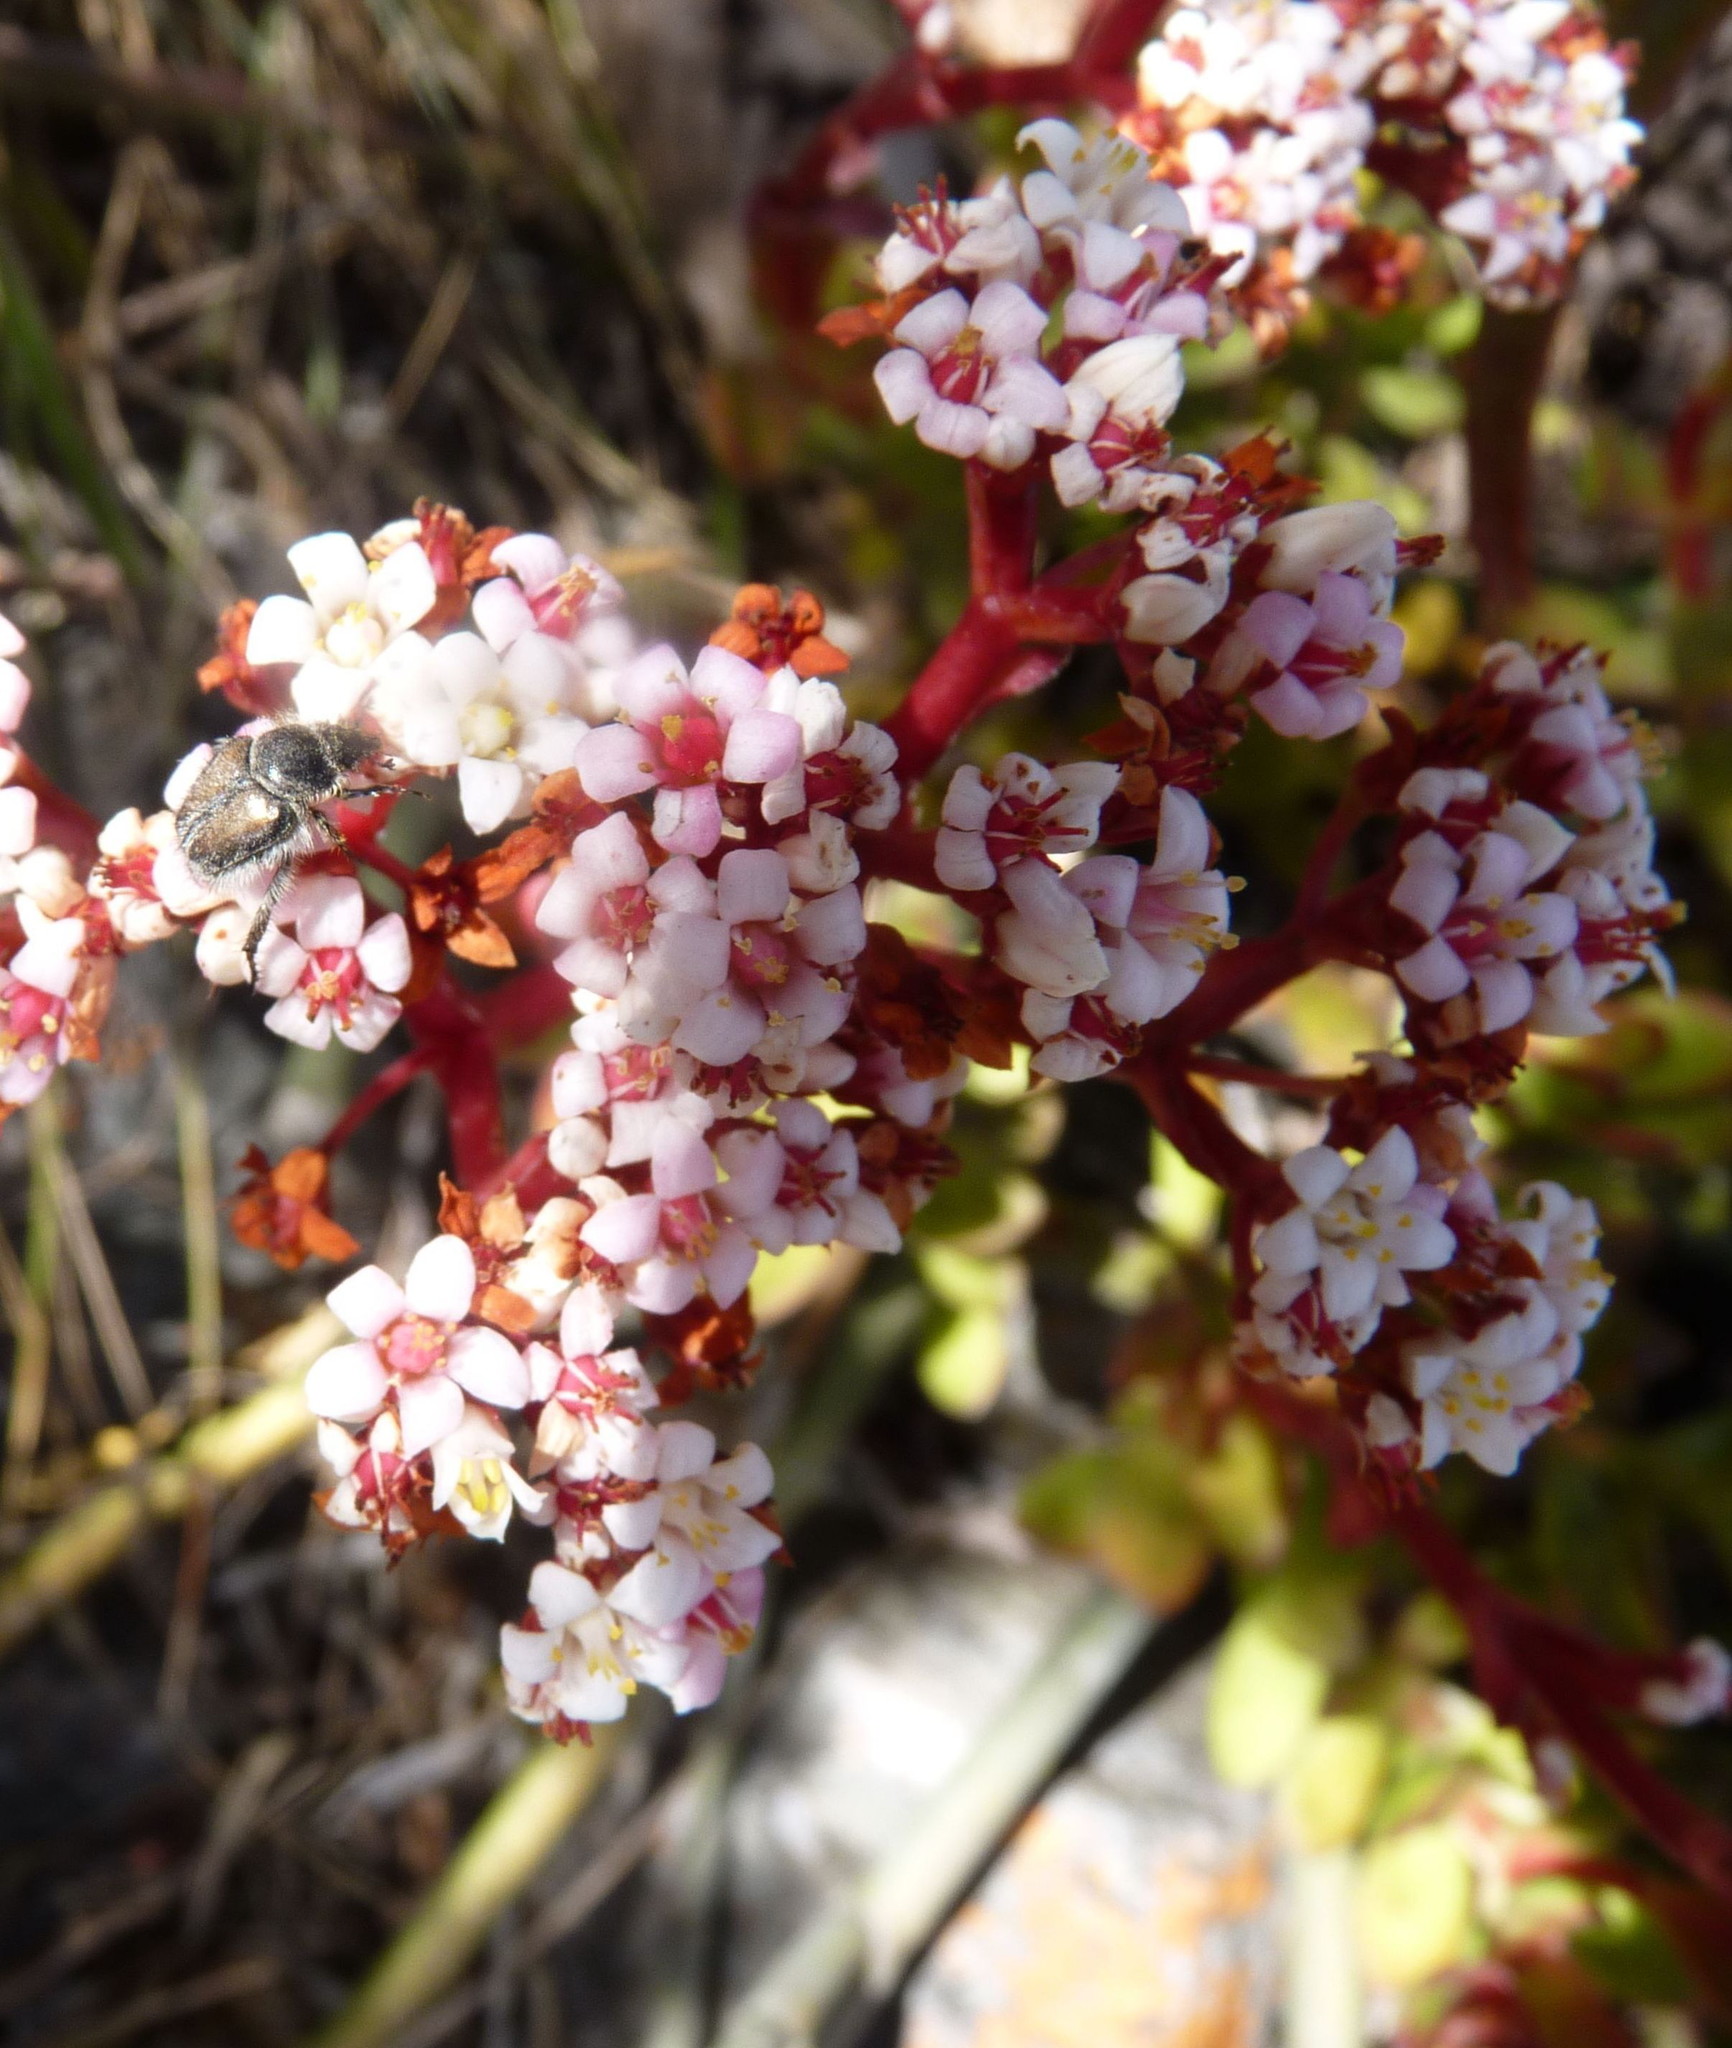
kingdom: Plantae
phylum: Tracheophyta
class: Magnoliopsida
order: Saxifragales
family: Crassulaceae
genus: Crassula
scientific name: Crassula rubricaulis
